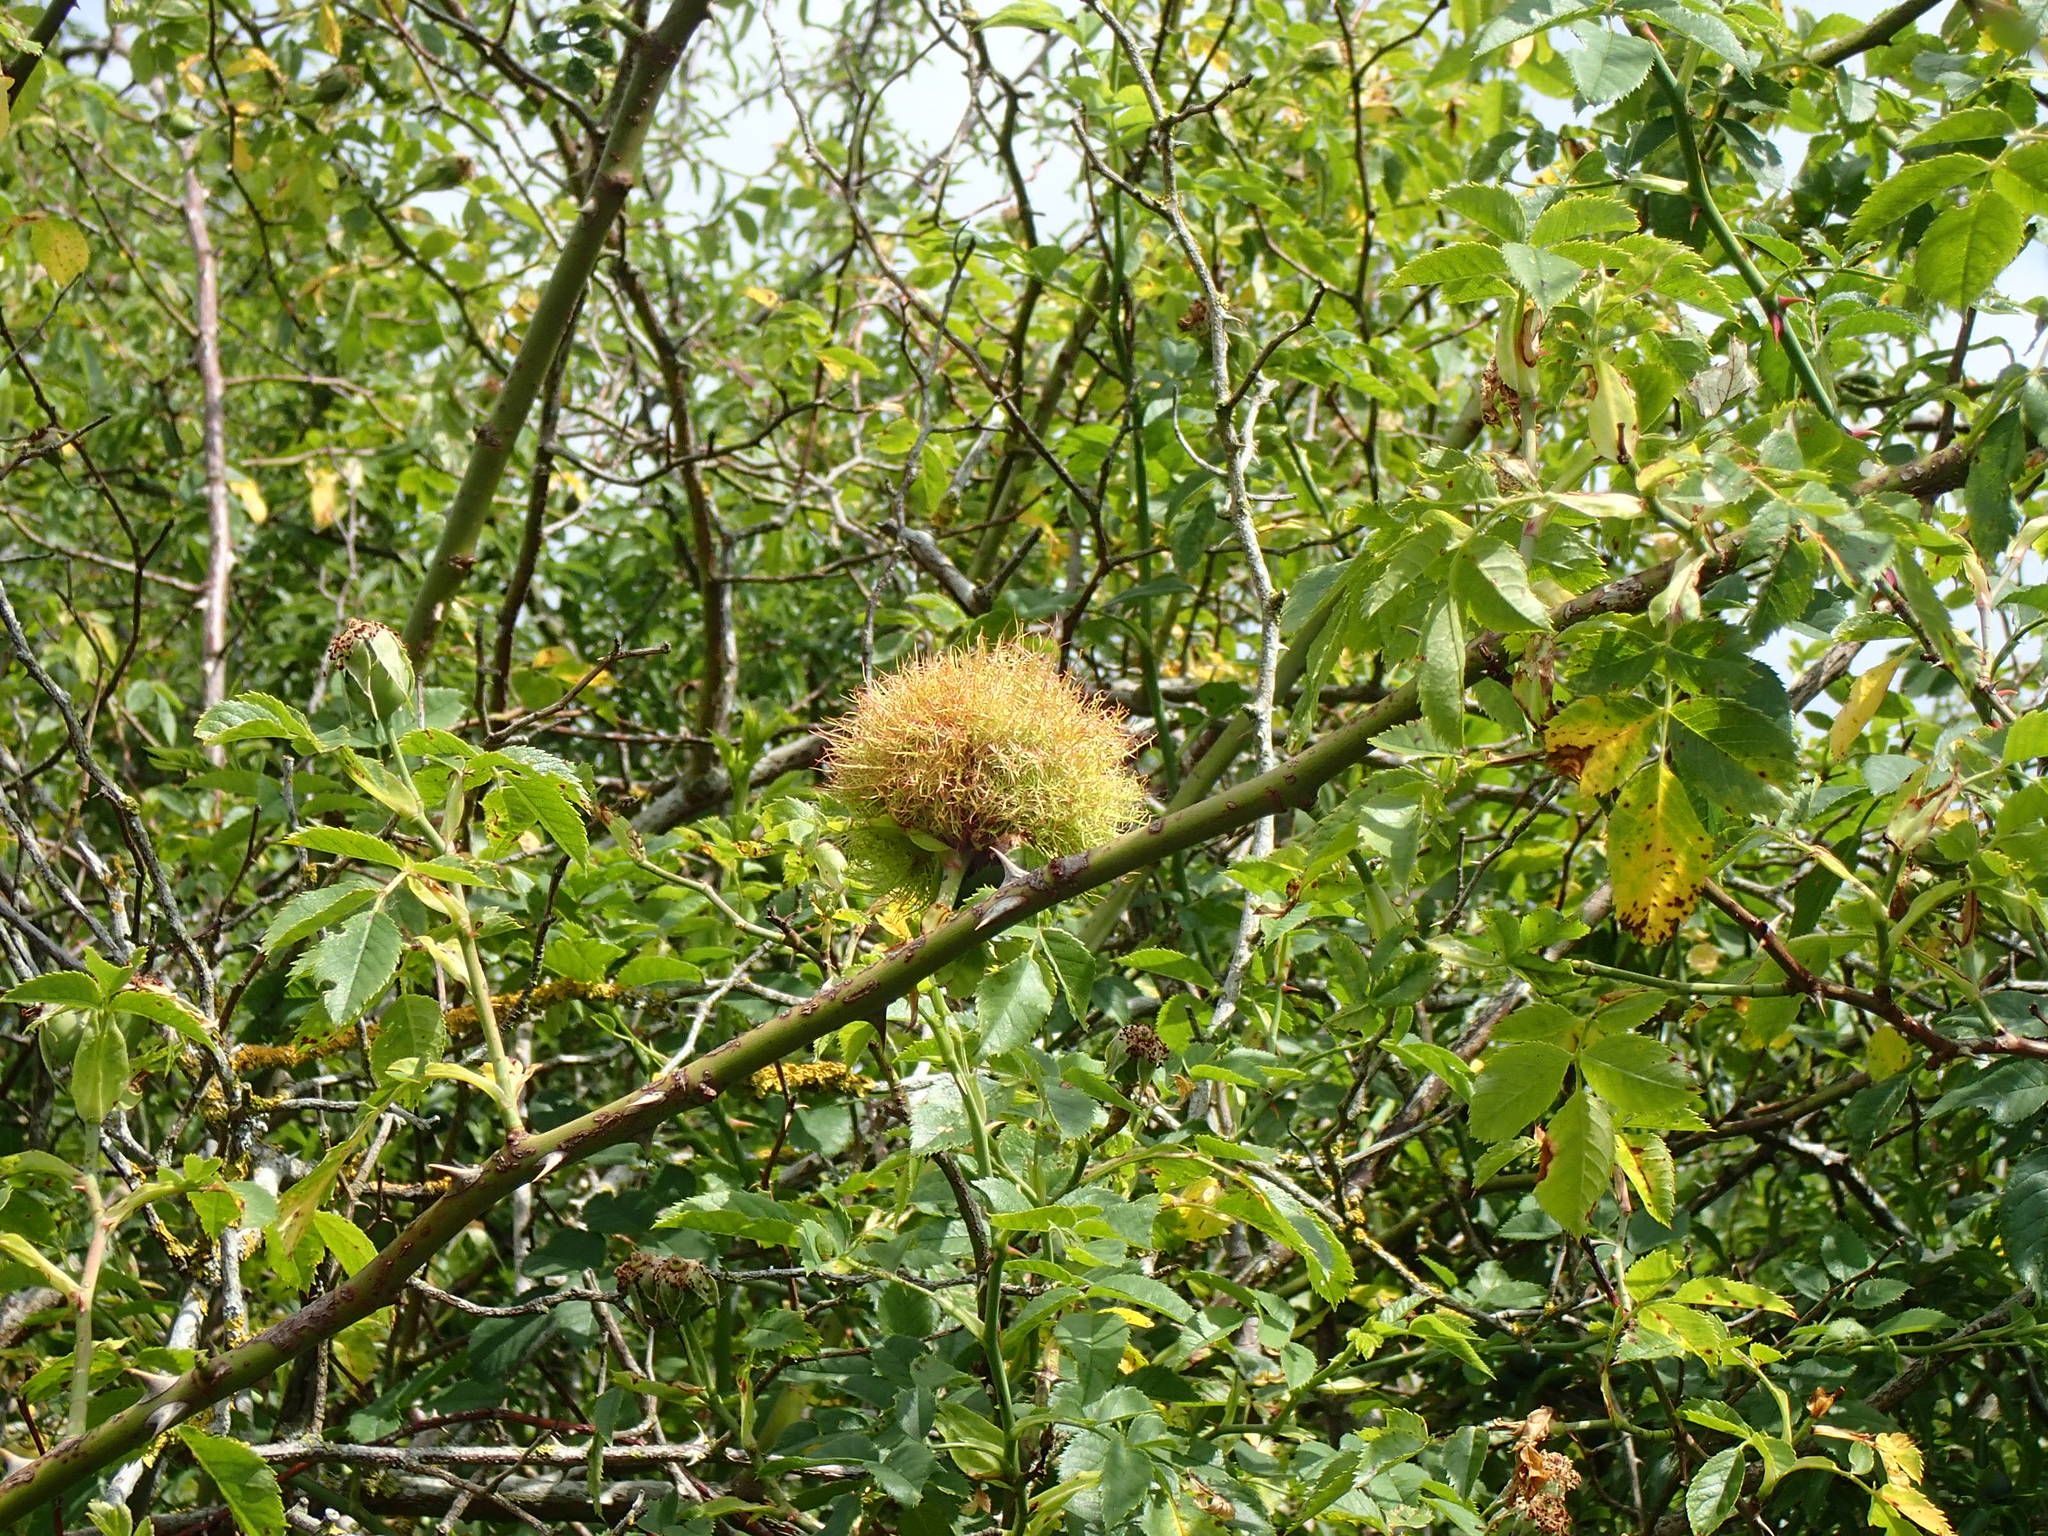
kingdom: Animalia
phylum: Arthropoda
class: Insecta
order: Hymenoptera
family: Cynipidae
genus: Diplolepis
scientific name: Diplolepis rosae
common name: Bedeguar gall
